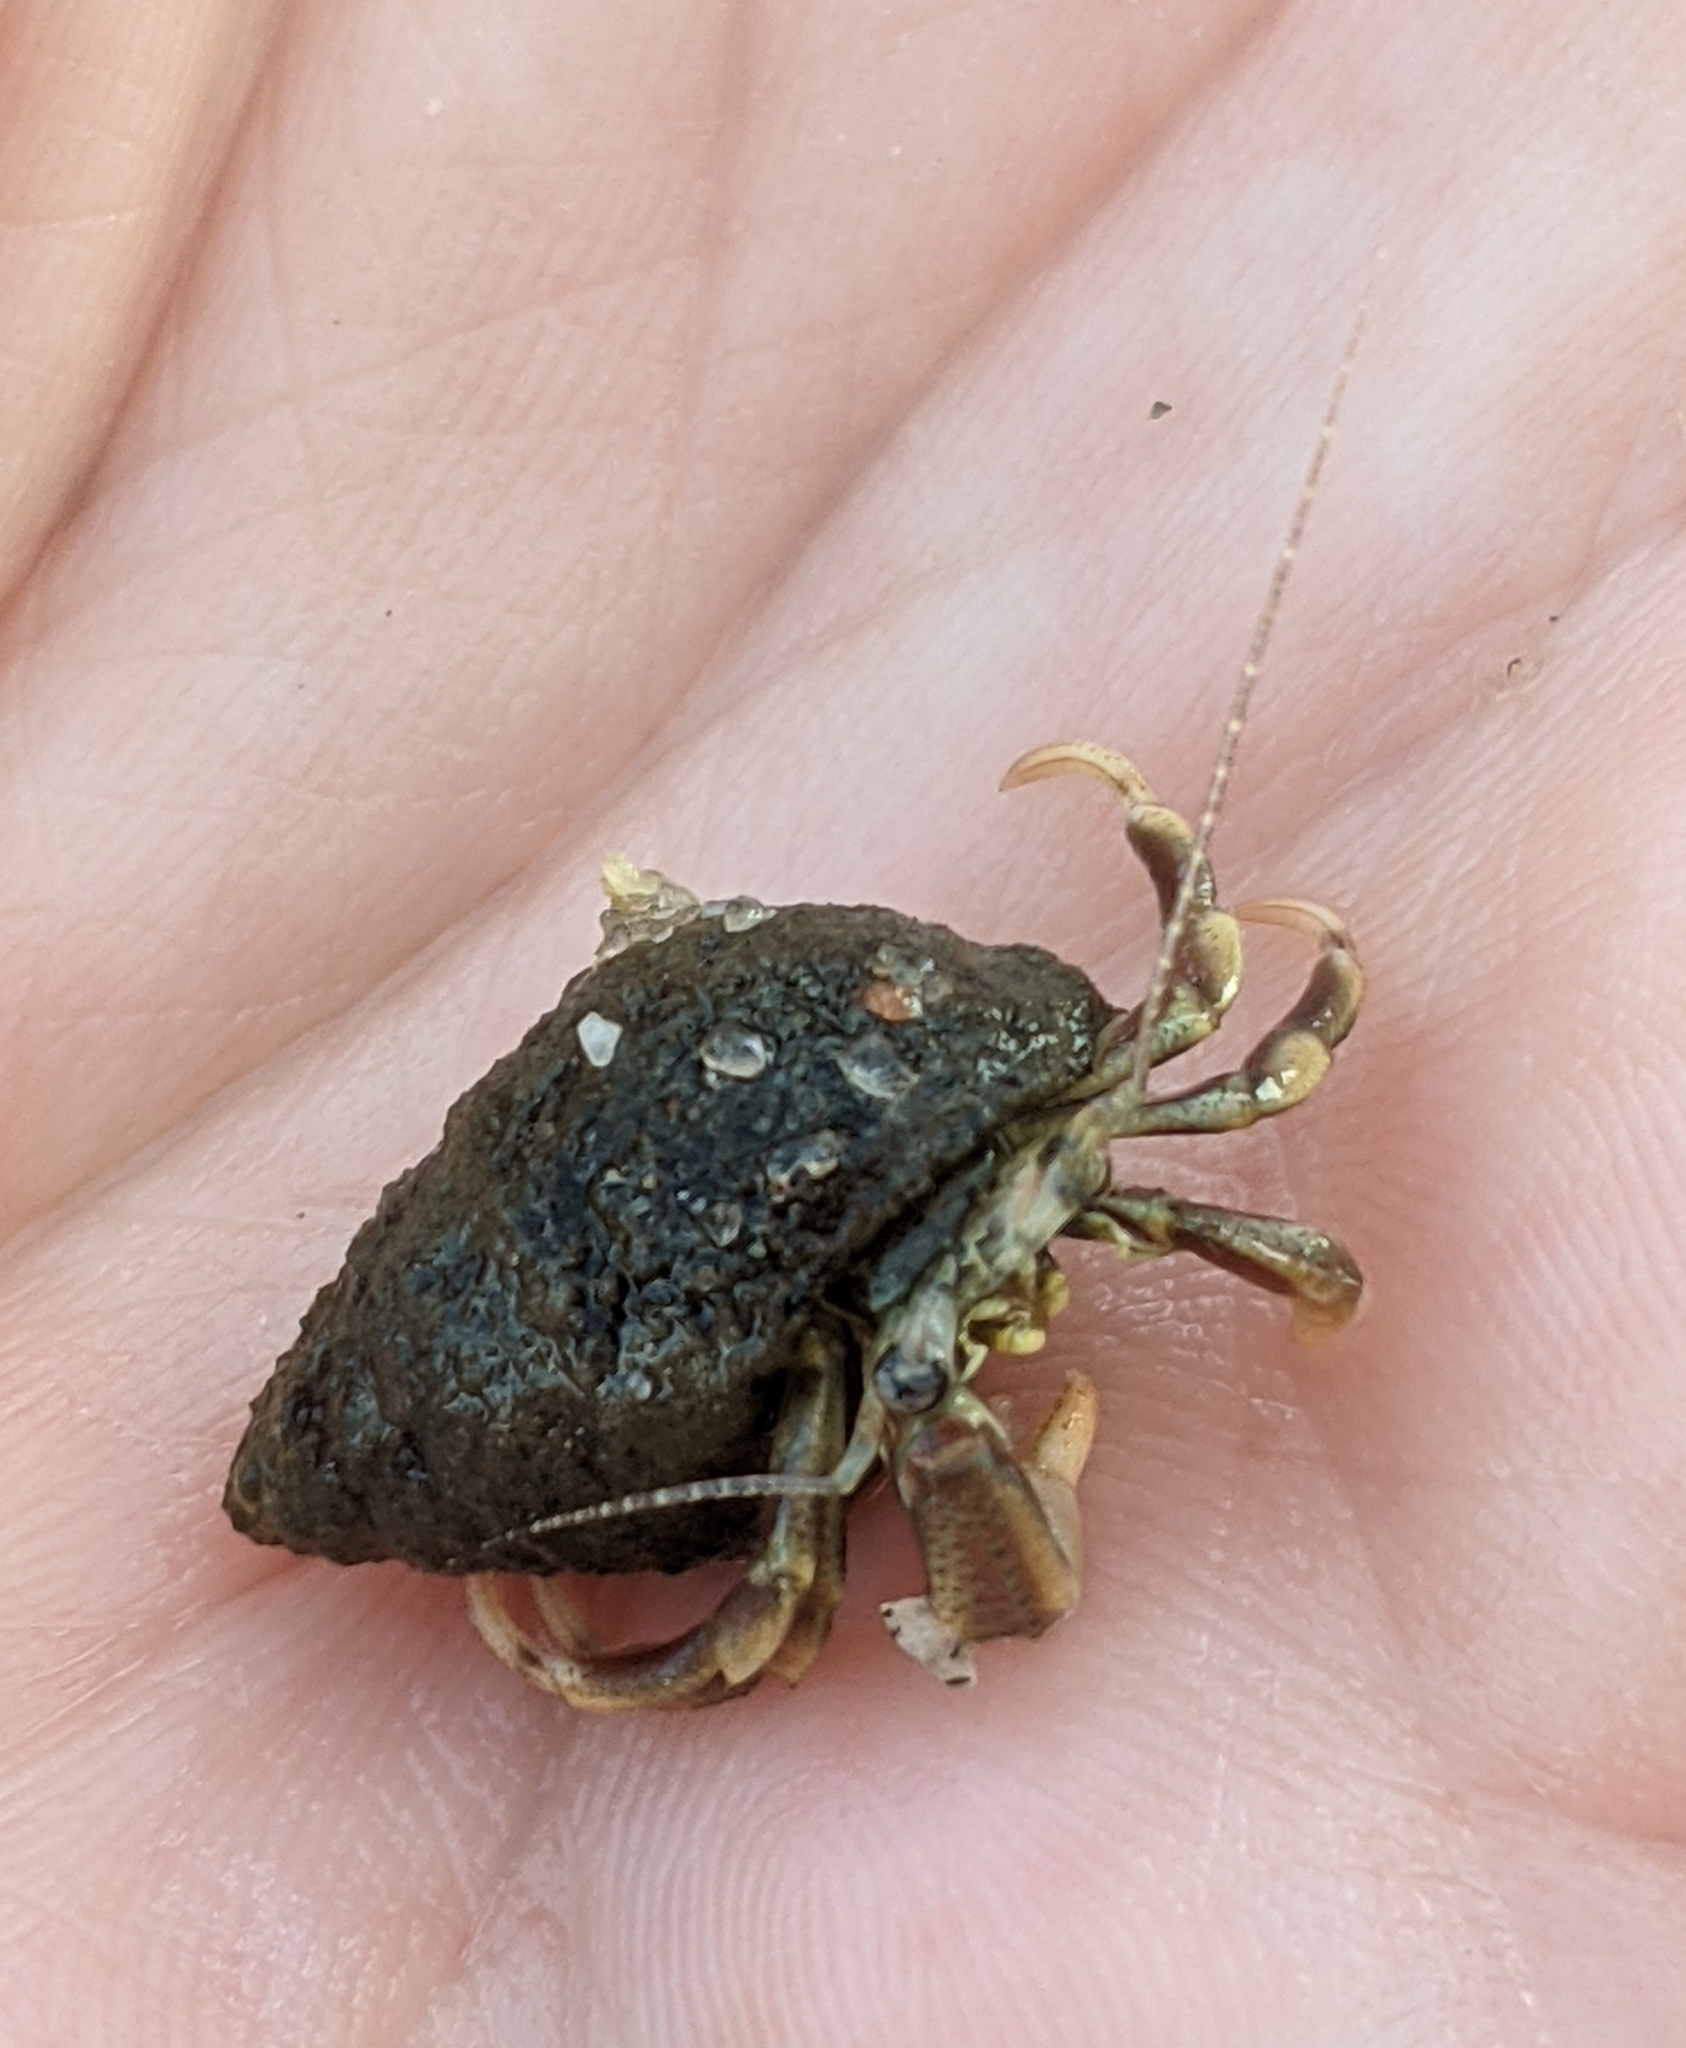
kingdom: Animalia
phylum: Arthropoda
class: Malacostraca
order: Decapoda
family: Paguridae
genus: Pagurus
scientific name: Pagurus longicarpus
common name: Long-armed hermit crab
